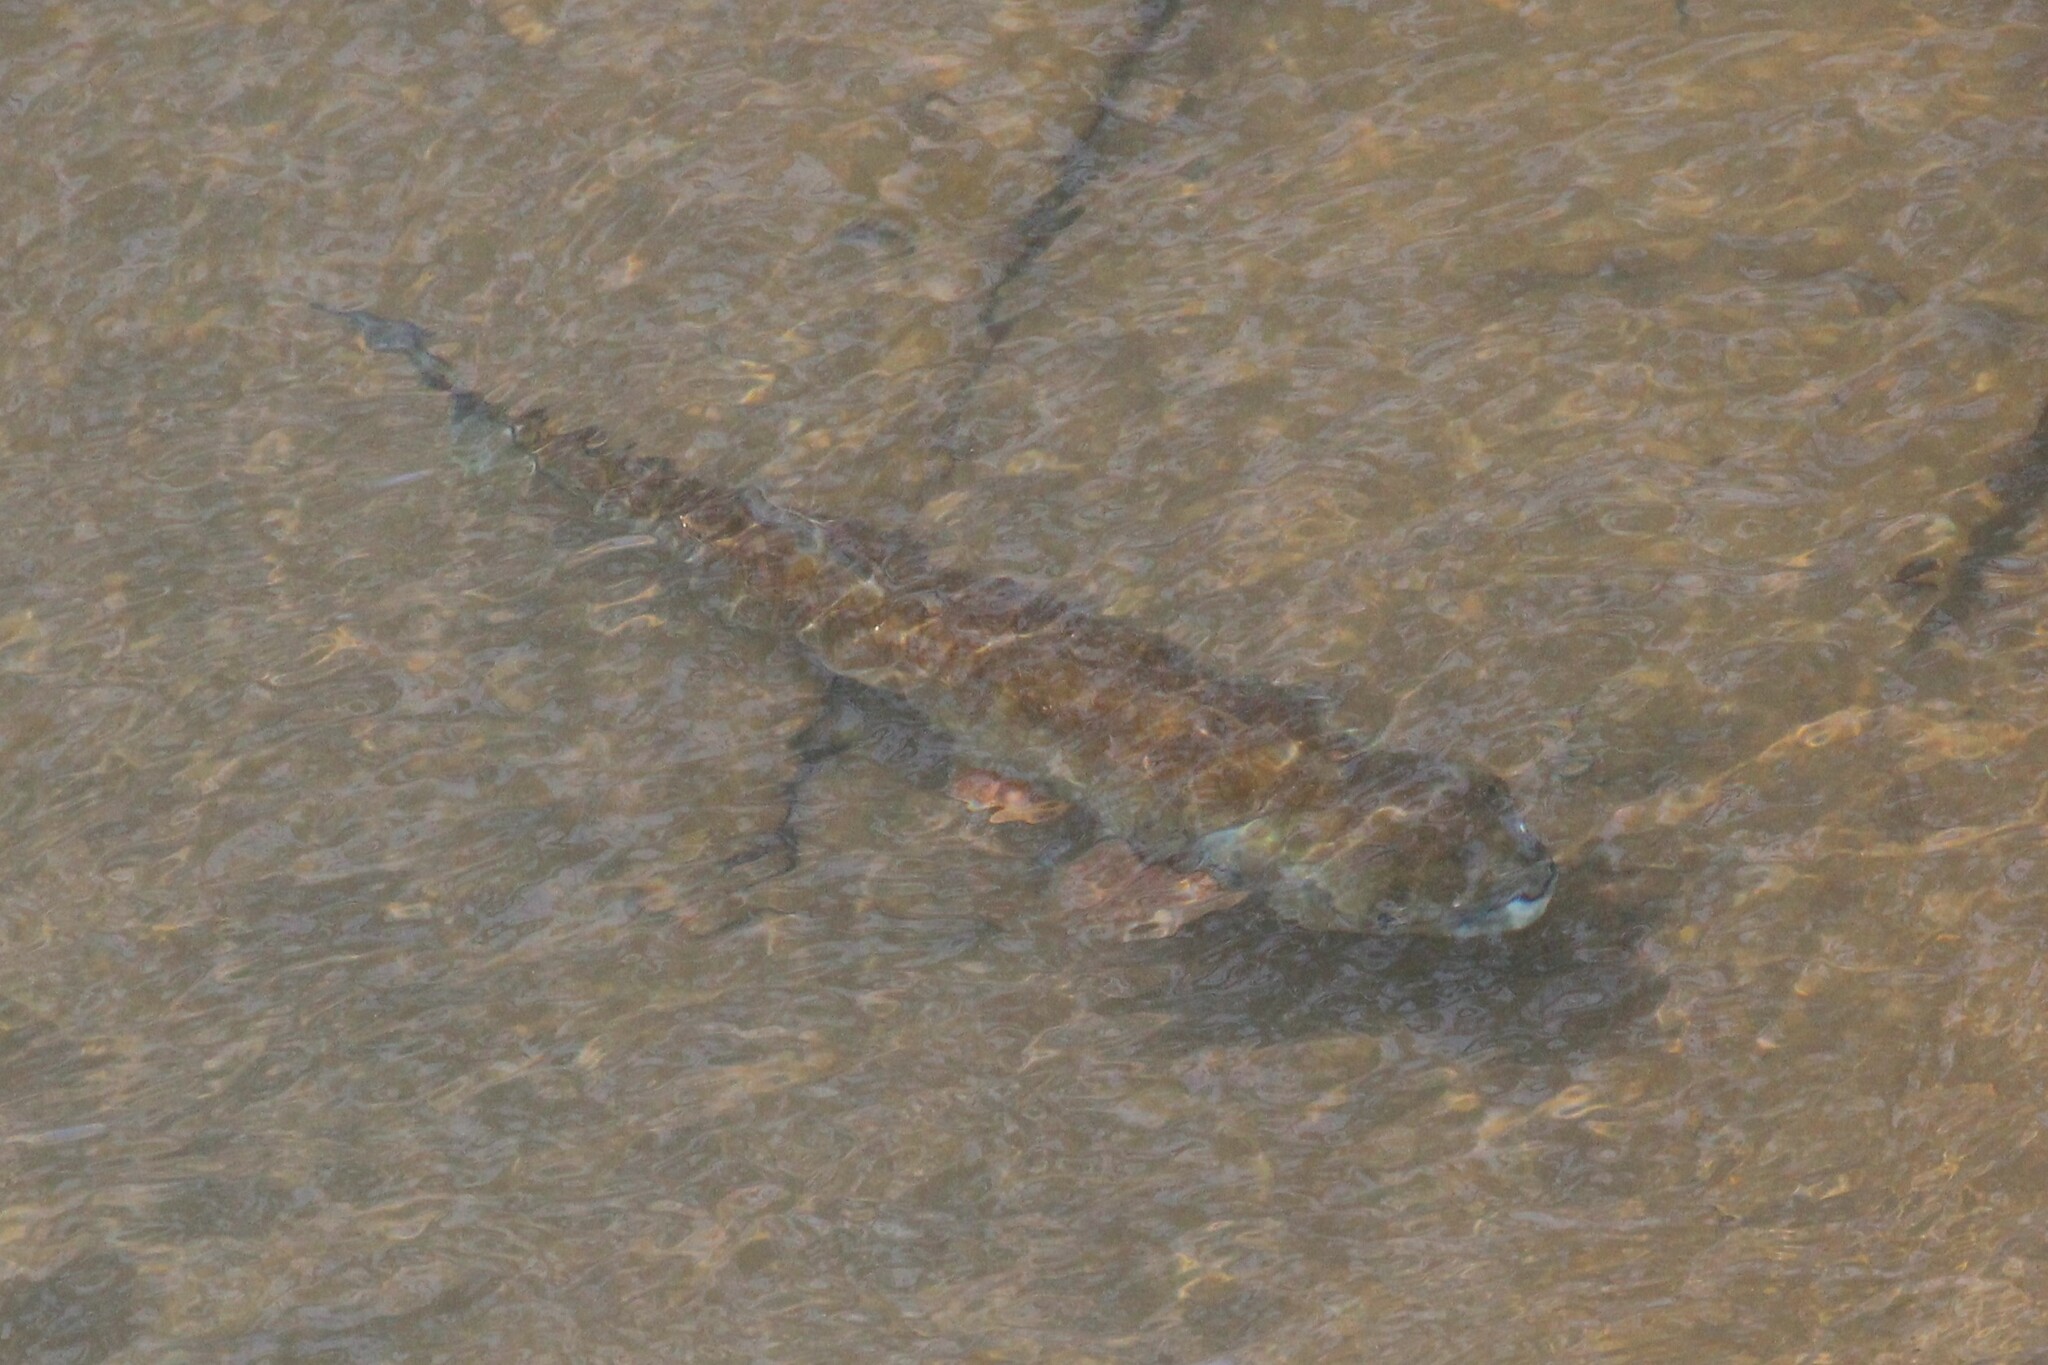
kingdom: Animalia
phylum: Chordata
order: Characiformes
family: Bryconidae
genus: Brycon
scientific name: Brycon costaricensis
